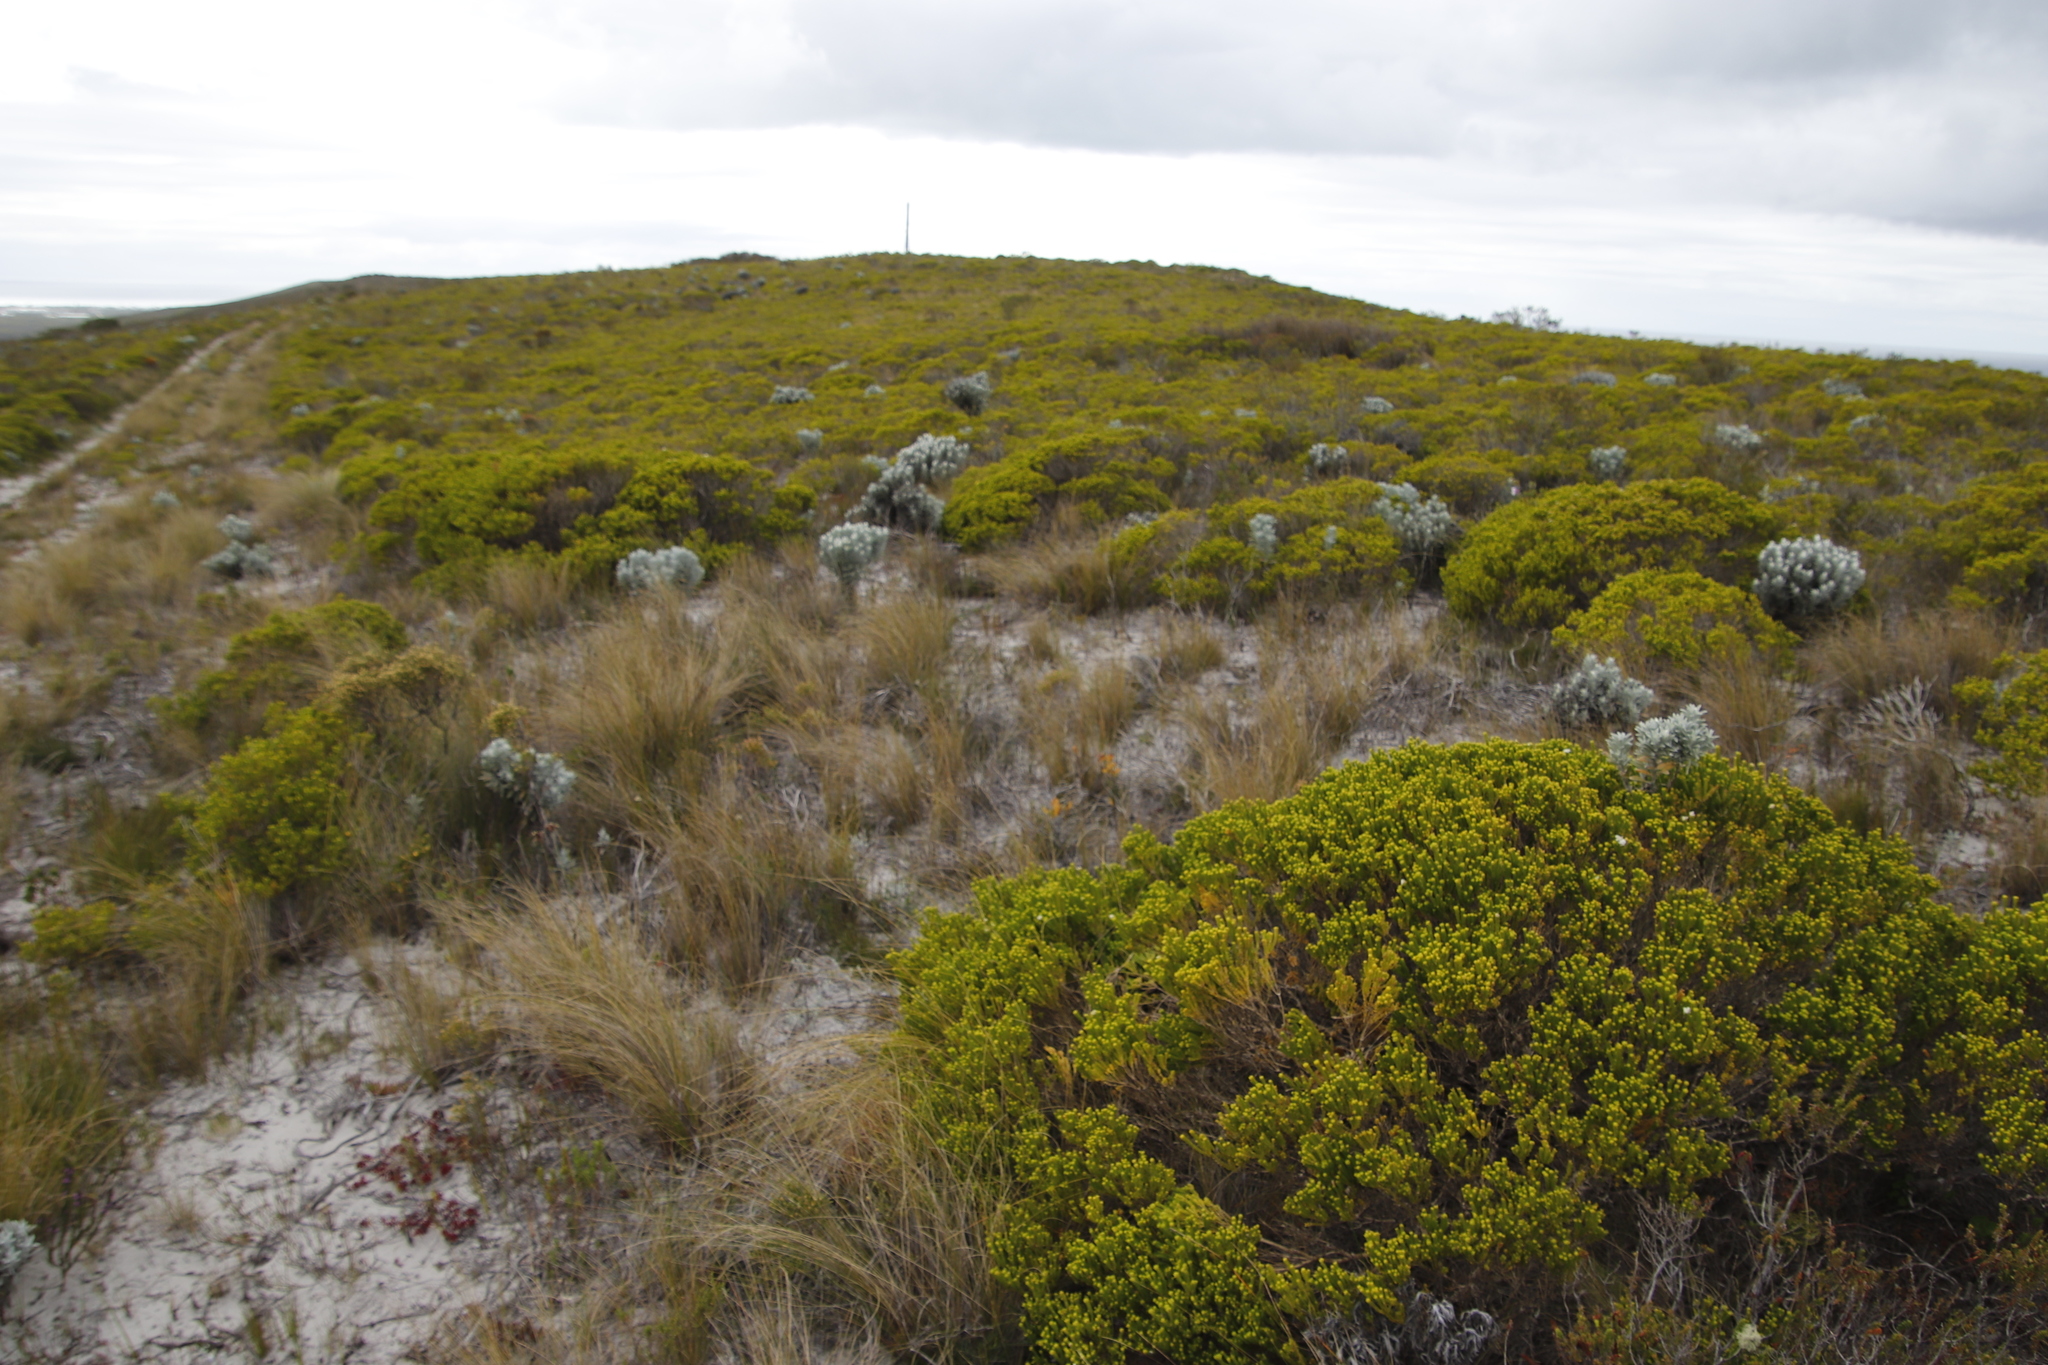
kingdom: Plantae
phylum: Tracheophyta
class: Magnoliopsida
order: Sapindales
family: Rutaceae
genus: Agathosma
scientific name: Agathosma collina
